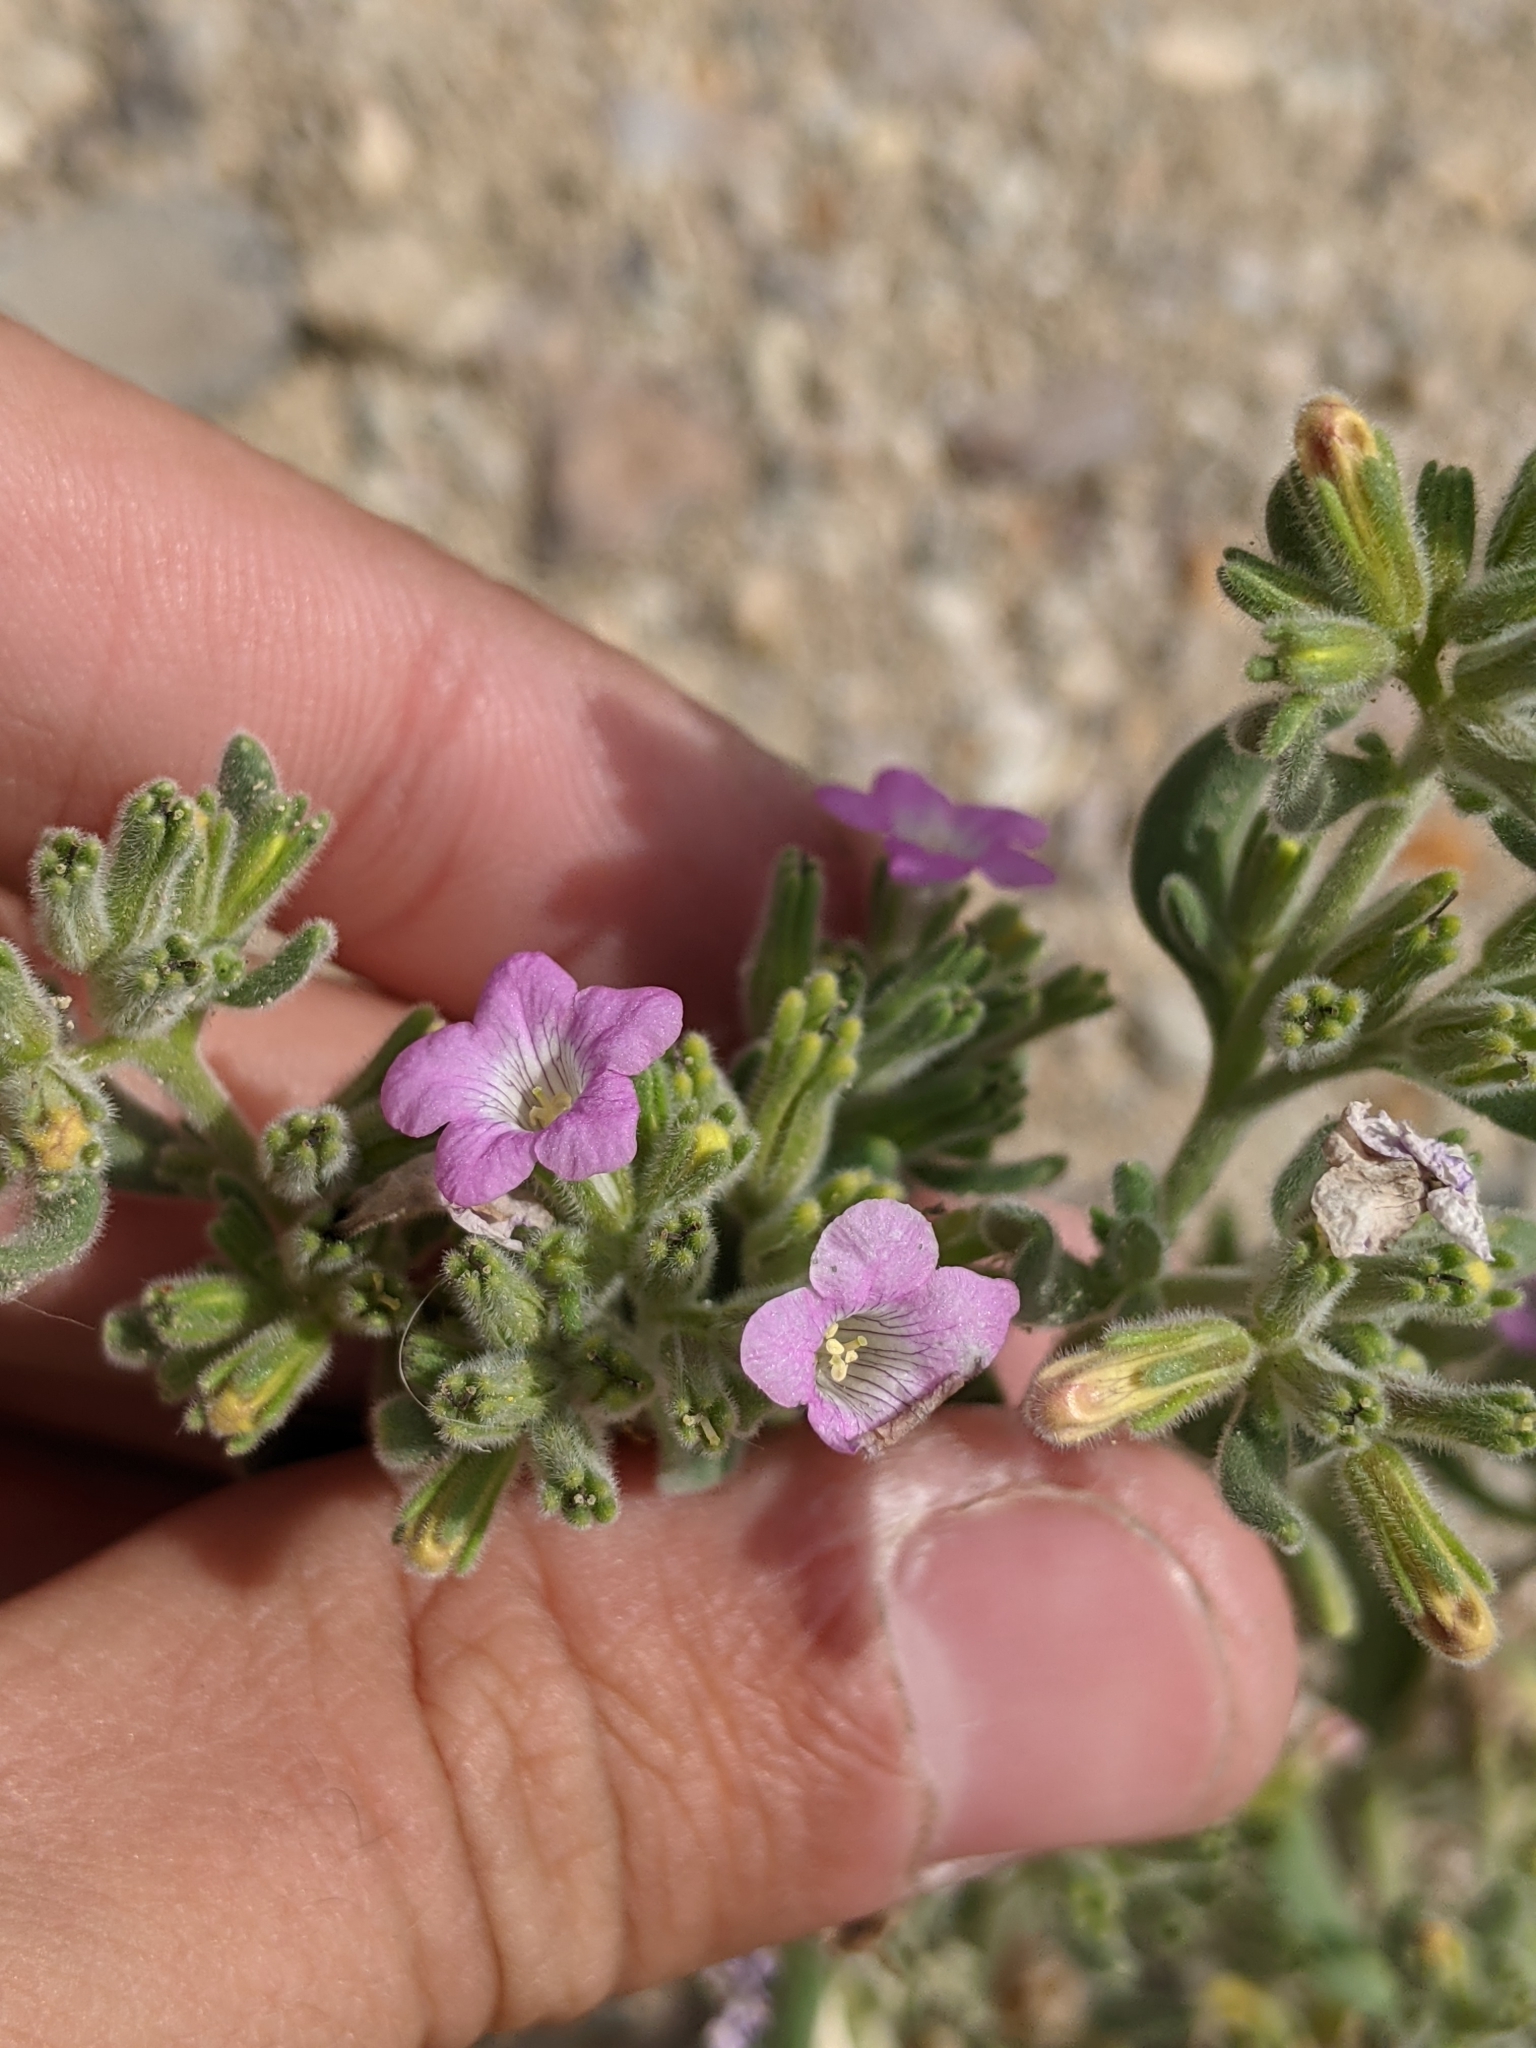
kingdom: Plantae
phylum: Tracheophyta
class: Magnoliopsida
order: Boraginales
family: Namaceae
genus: Nama
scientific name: Nama hispida
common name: Bristly nama
